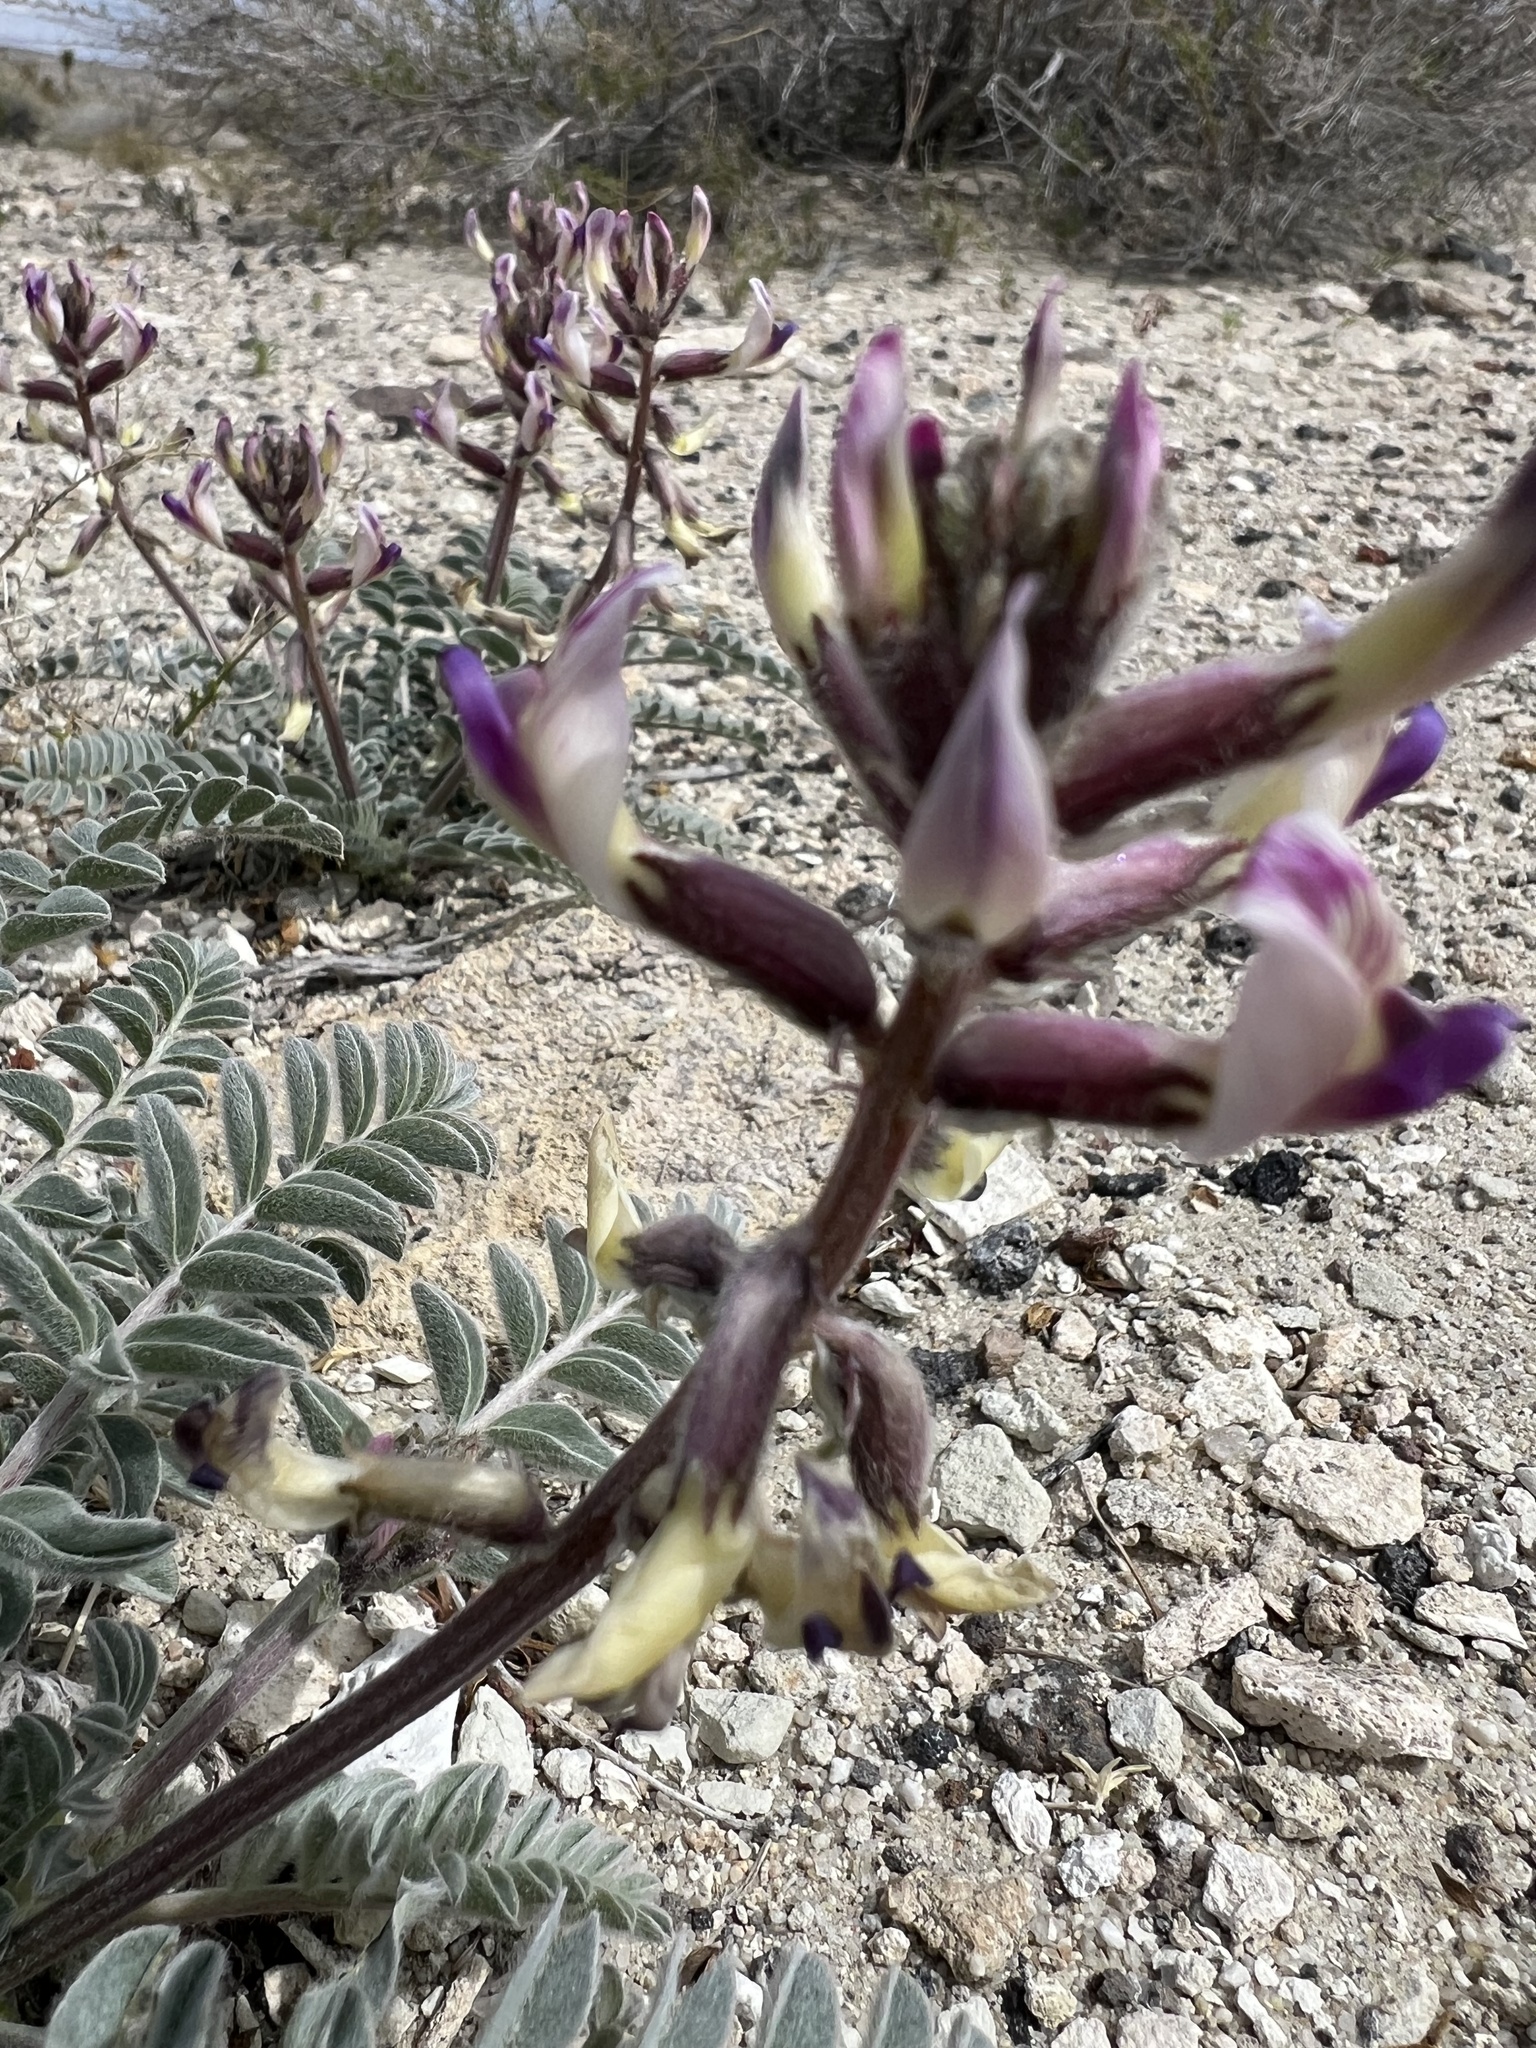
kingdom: Plantae
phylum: Tracheophyta
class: Magnoliopsida
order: Fabales
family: Fabaceae
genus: Astragalus
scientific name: Astragalus layneae
